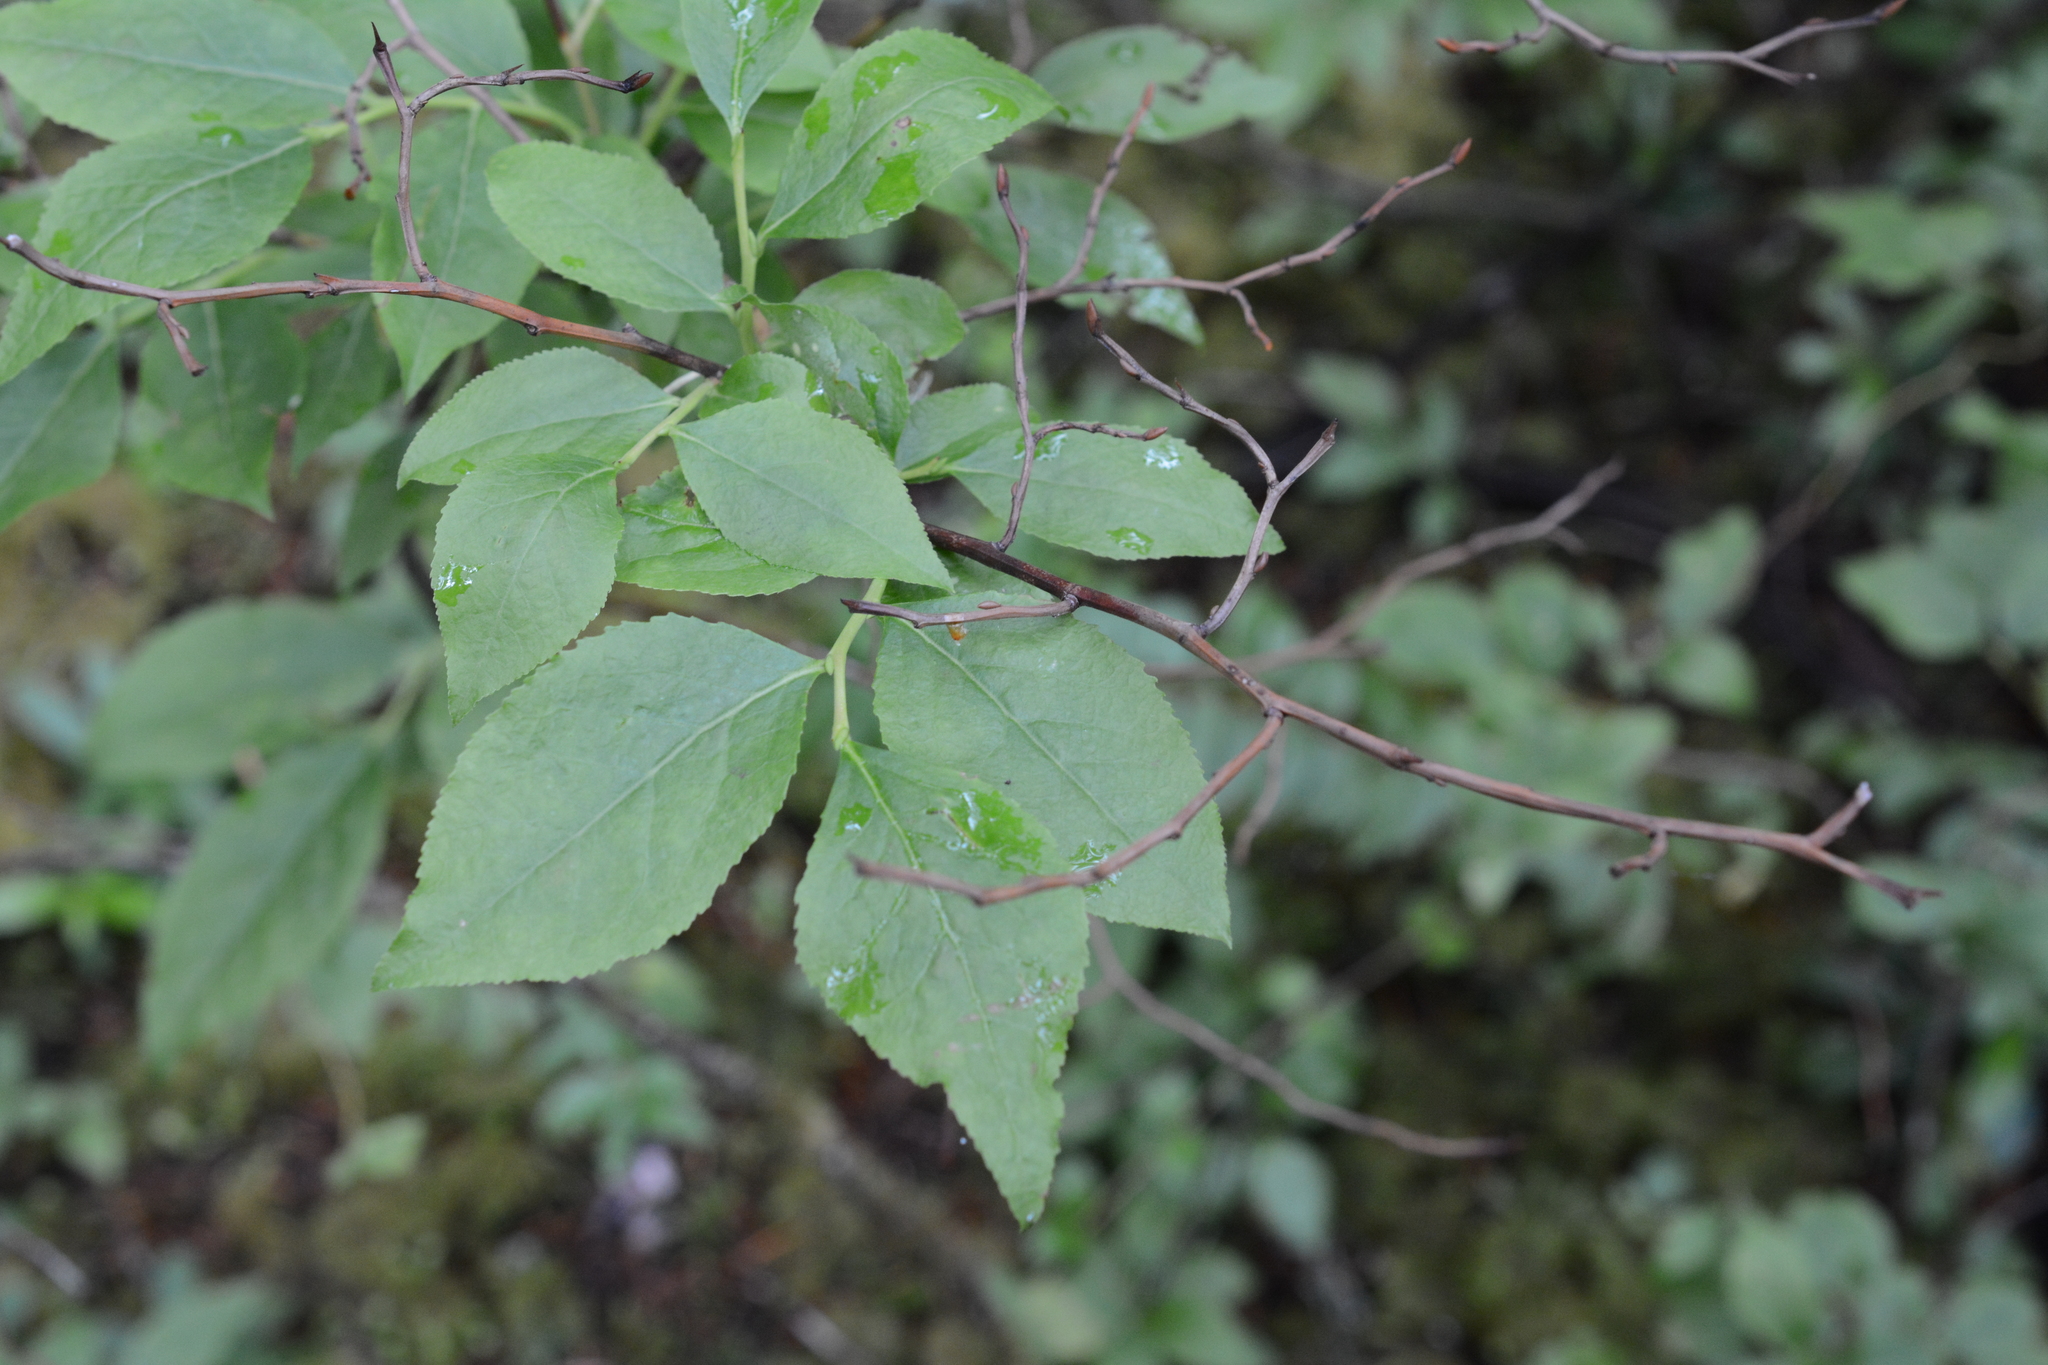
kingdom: Plantae
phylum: Tracheophyta
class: Magnoliopsida
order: Ericales
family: Ericaceae
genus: Vaccinium
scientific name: Vaccinium membranaceum
